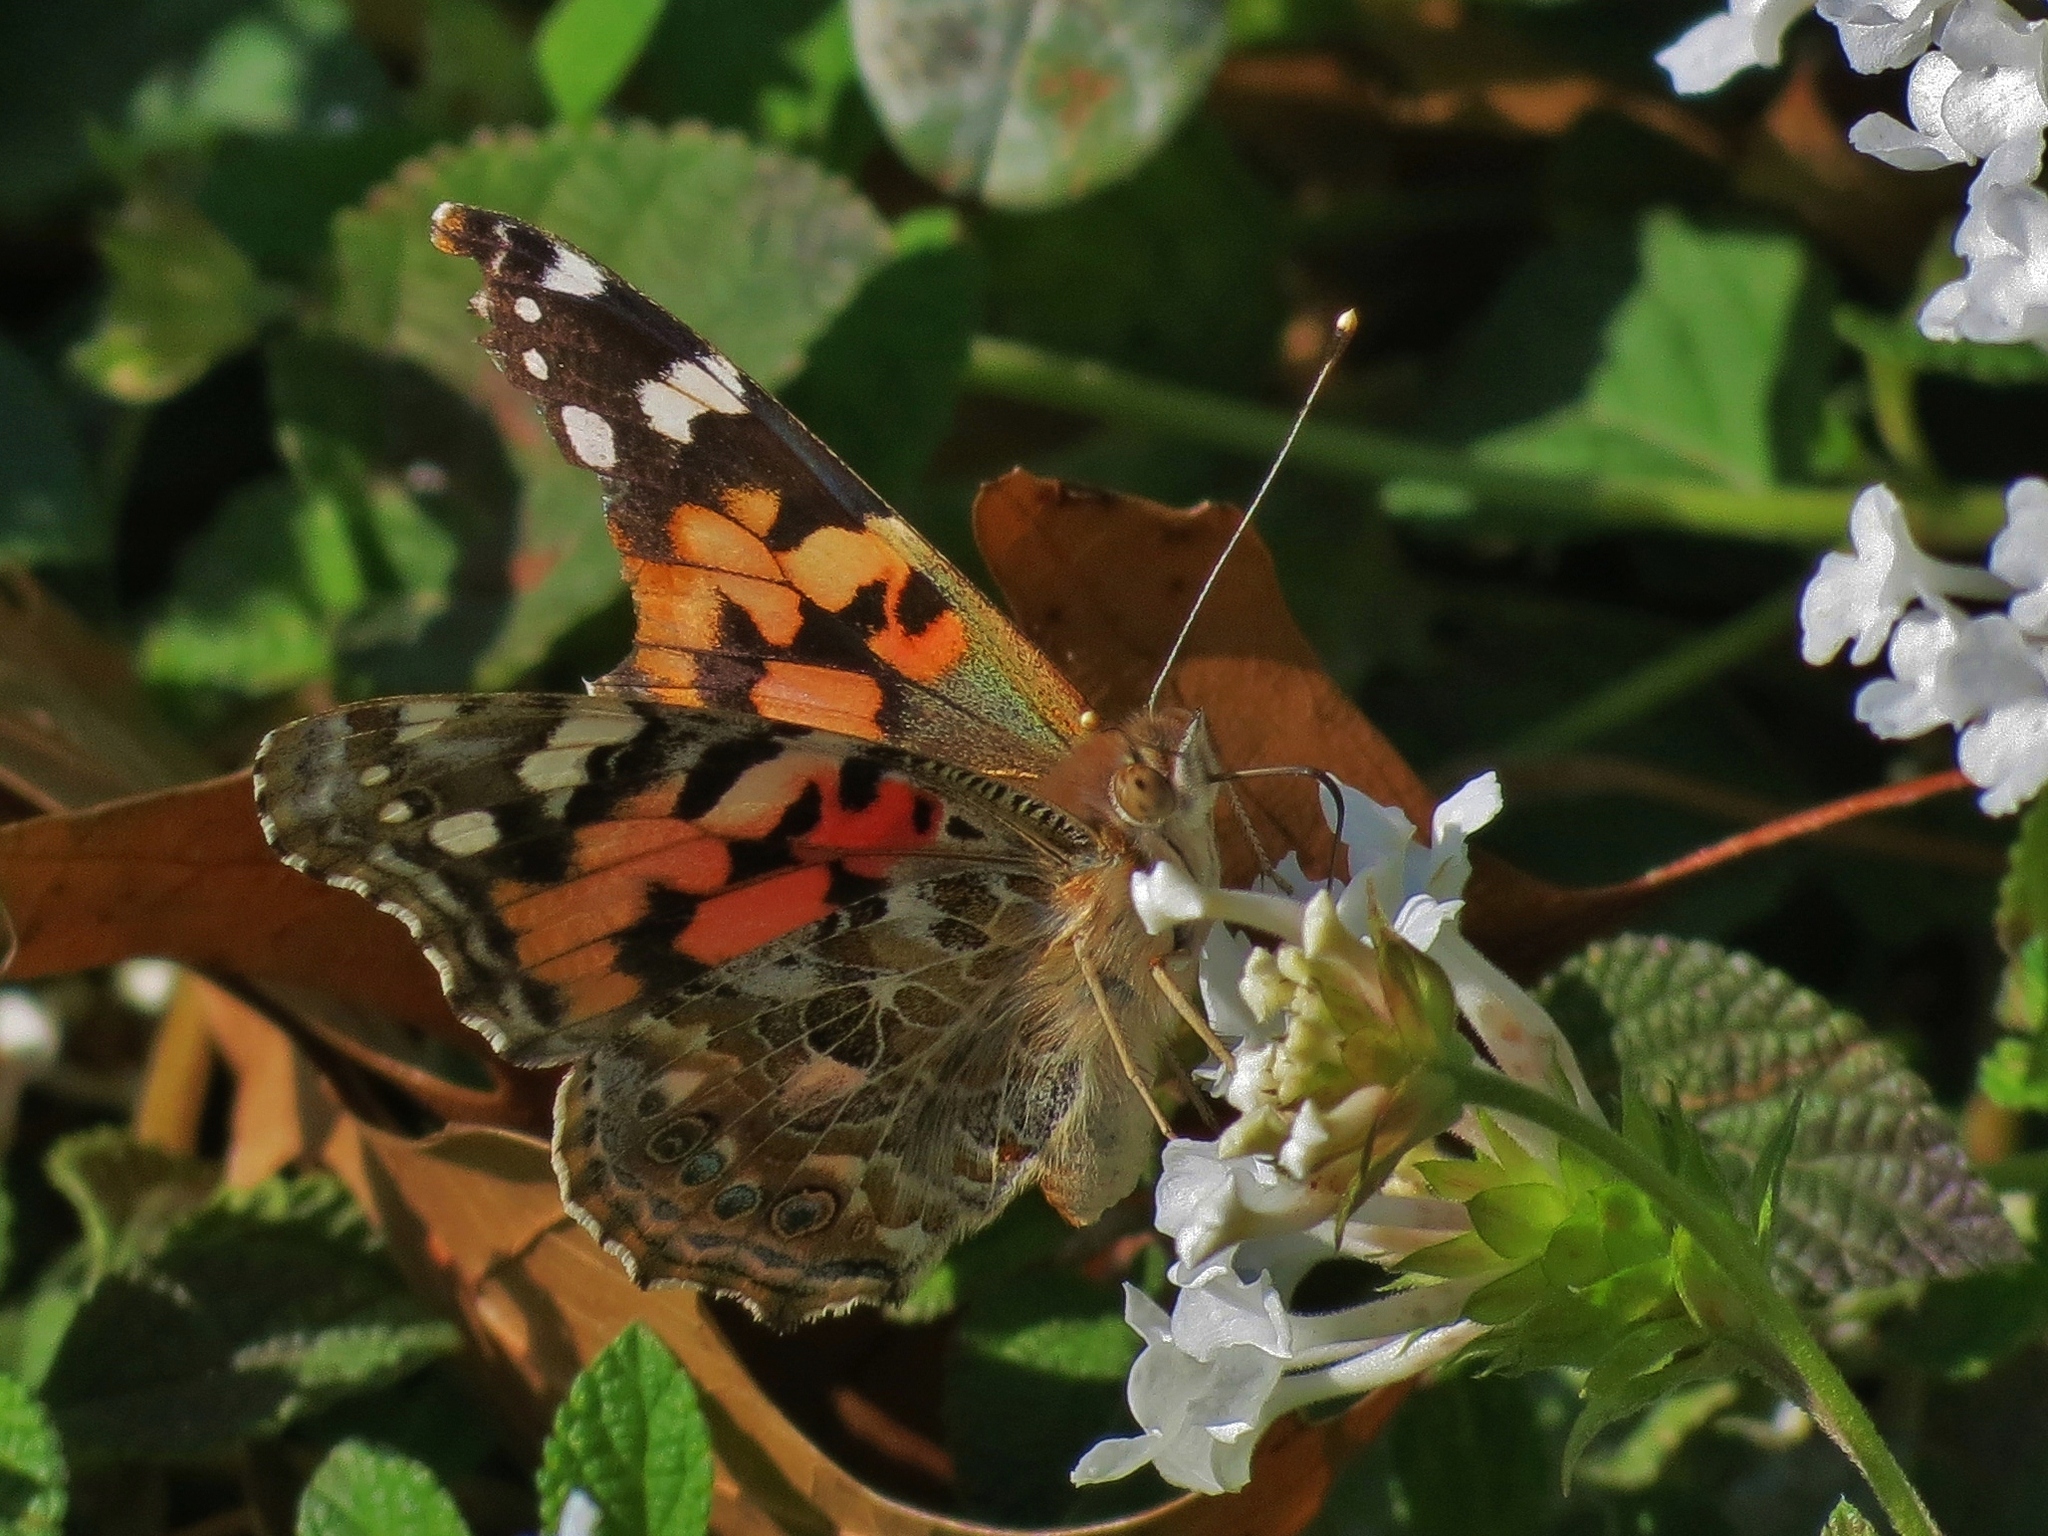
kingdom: Animalia
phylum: Arthropoda
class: Insecta
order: Lepidoptera
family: Nymphalidae
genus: Vanessa
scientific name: Vanessa cardui
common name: Painted lady
